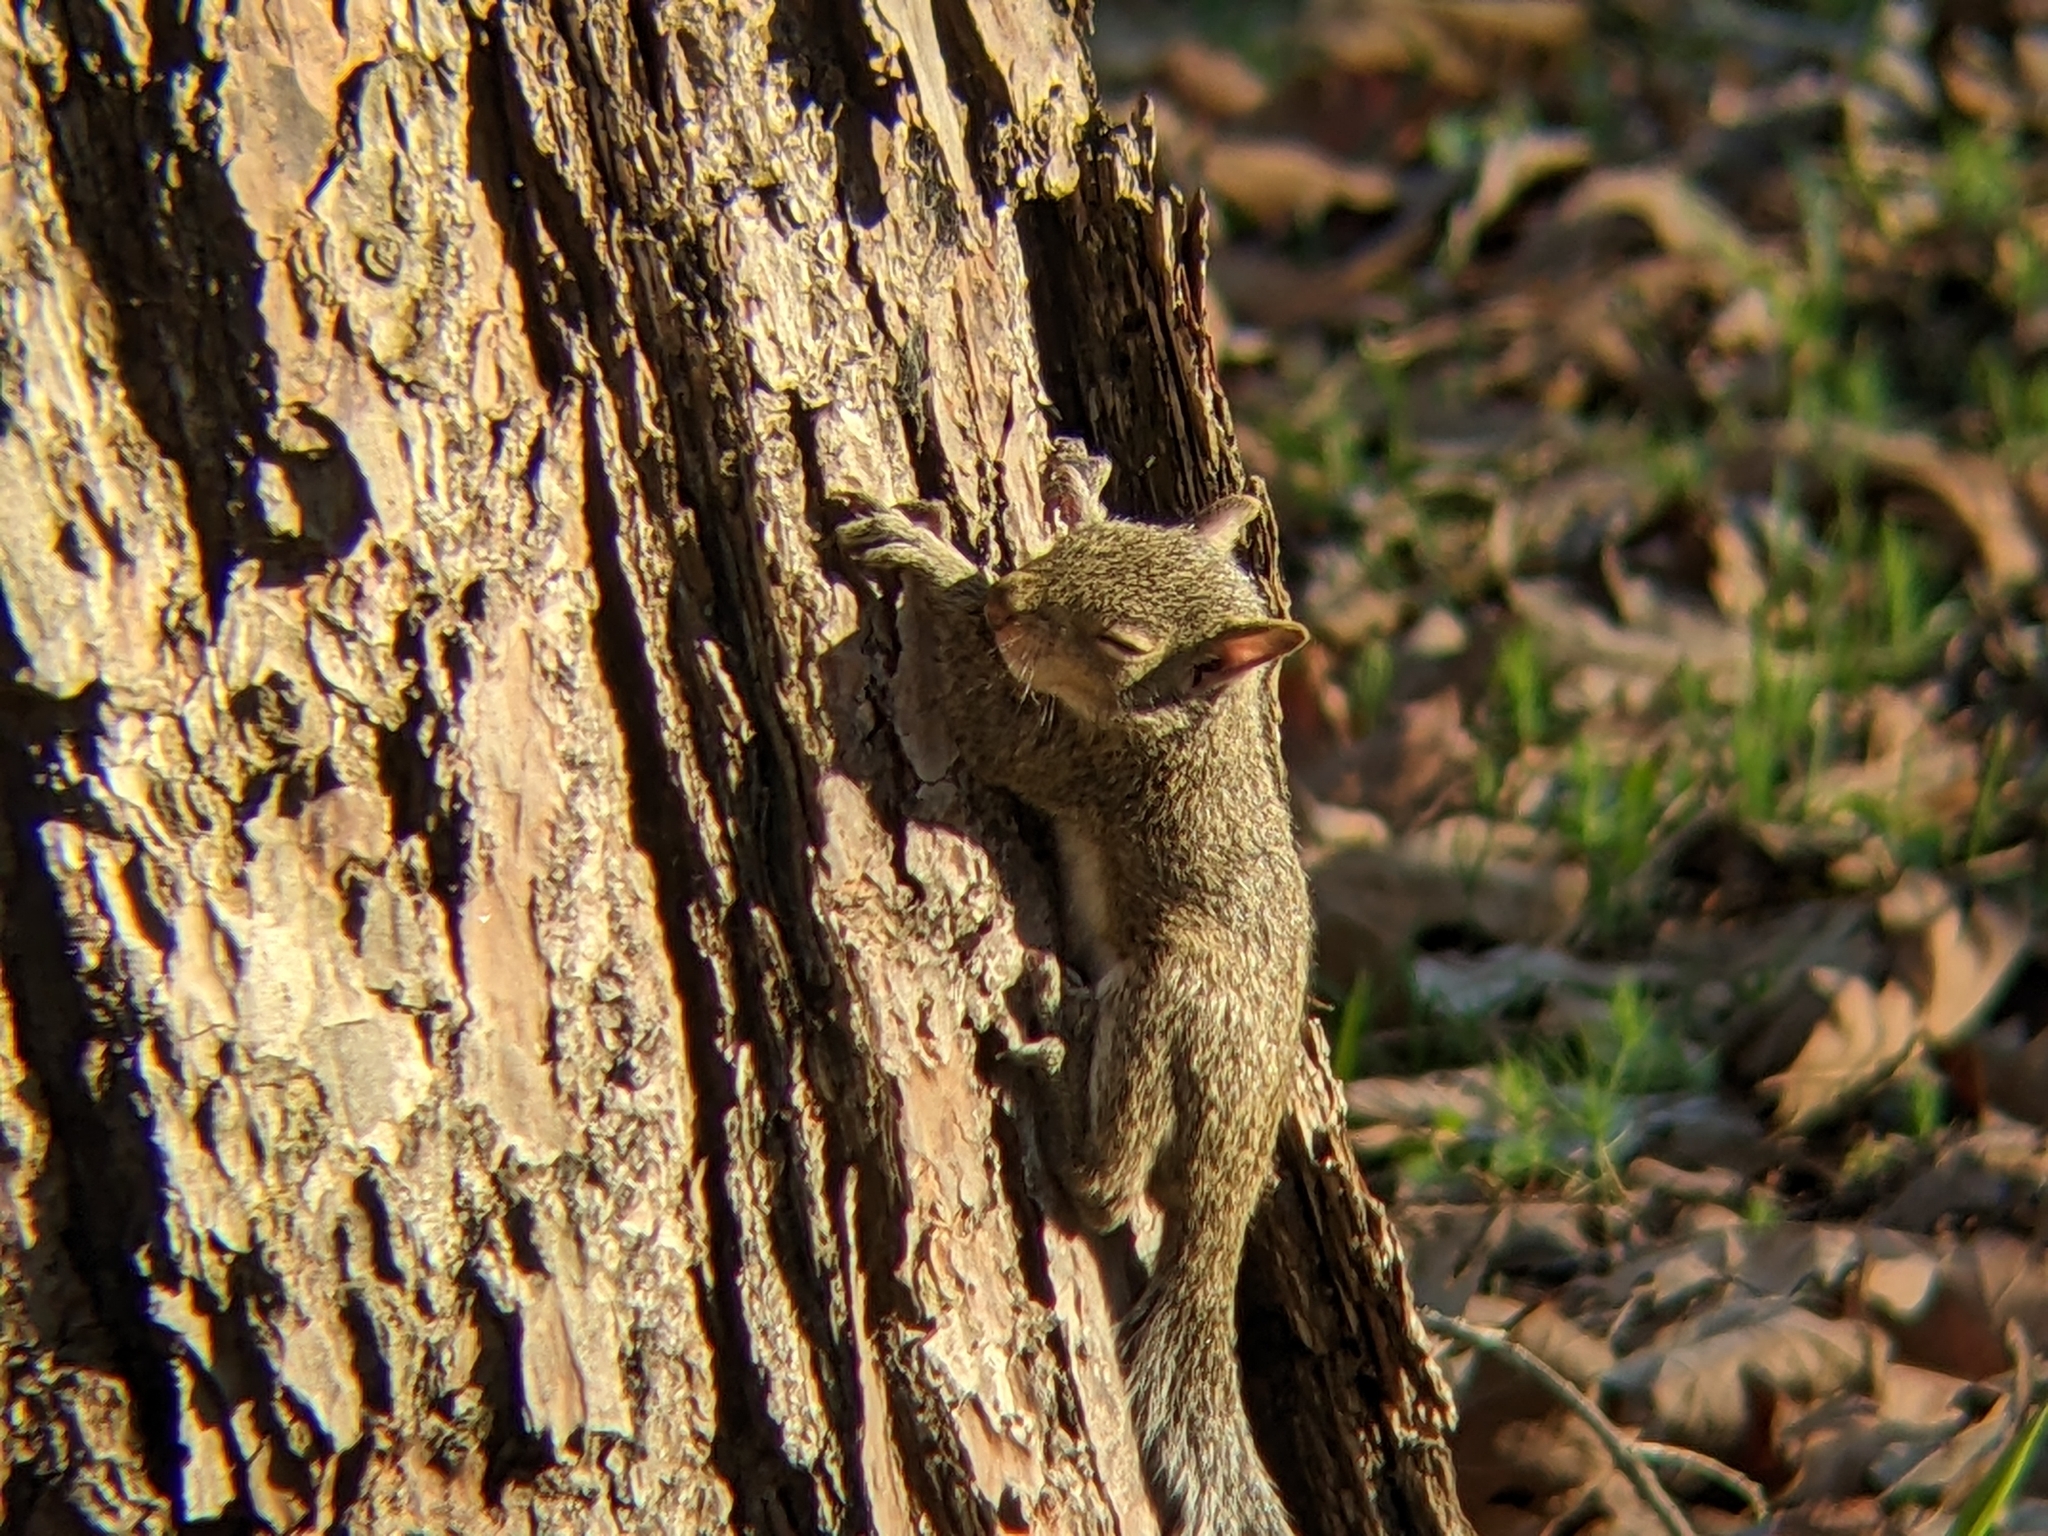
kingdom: Animalia
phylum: Chordata
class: Mammalia
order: Rodentia
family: Sciuridae
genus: Sciurus
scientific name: Sciurus carolinensis
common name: Eastern gray squirrel
